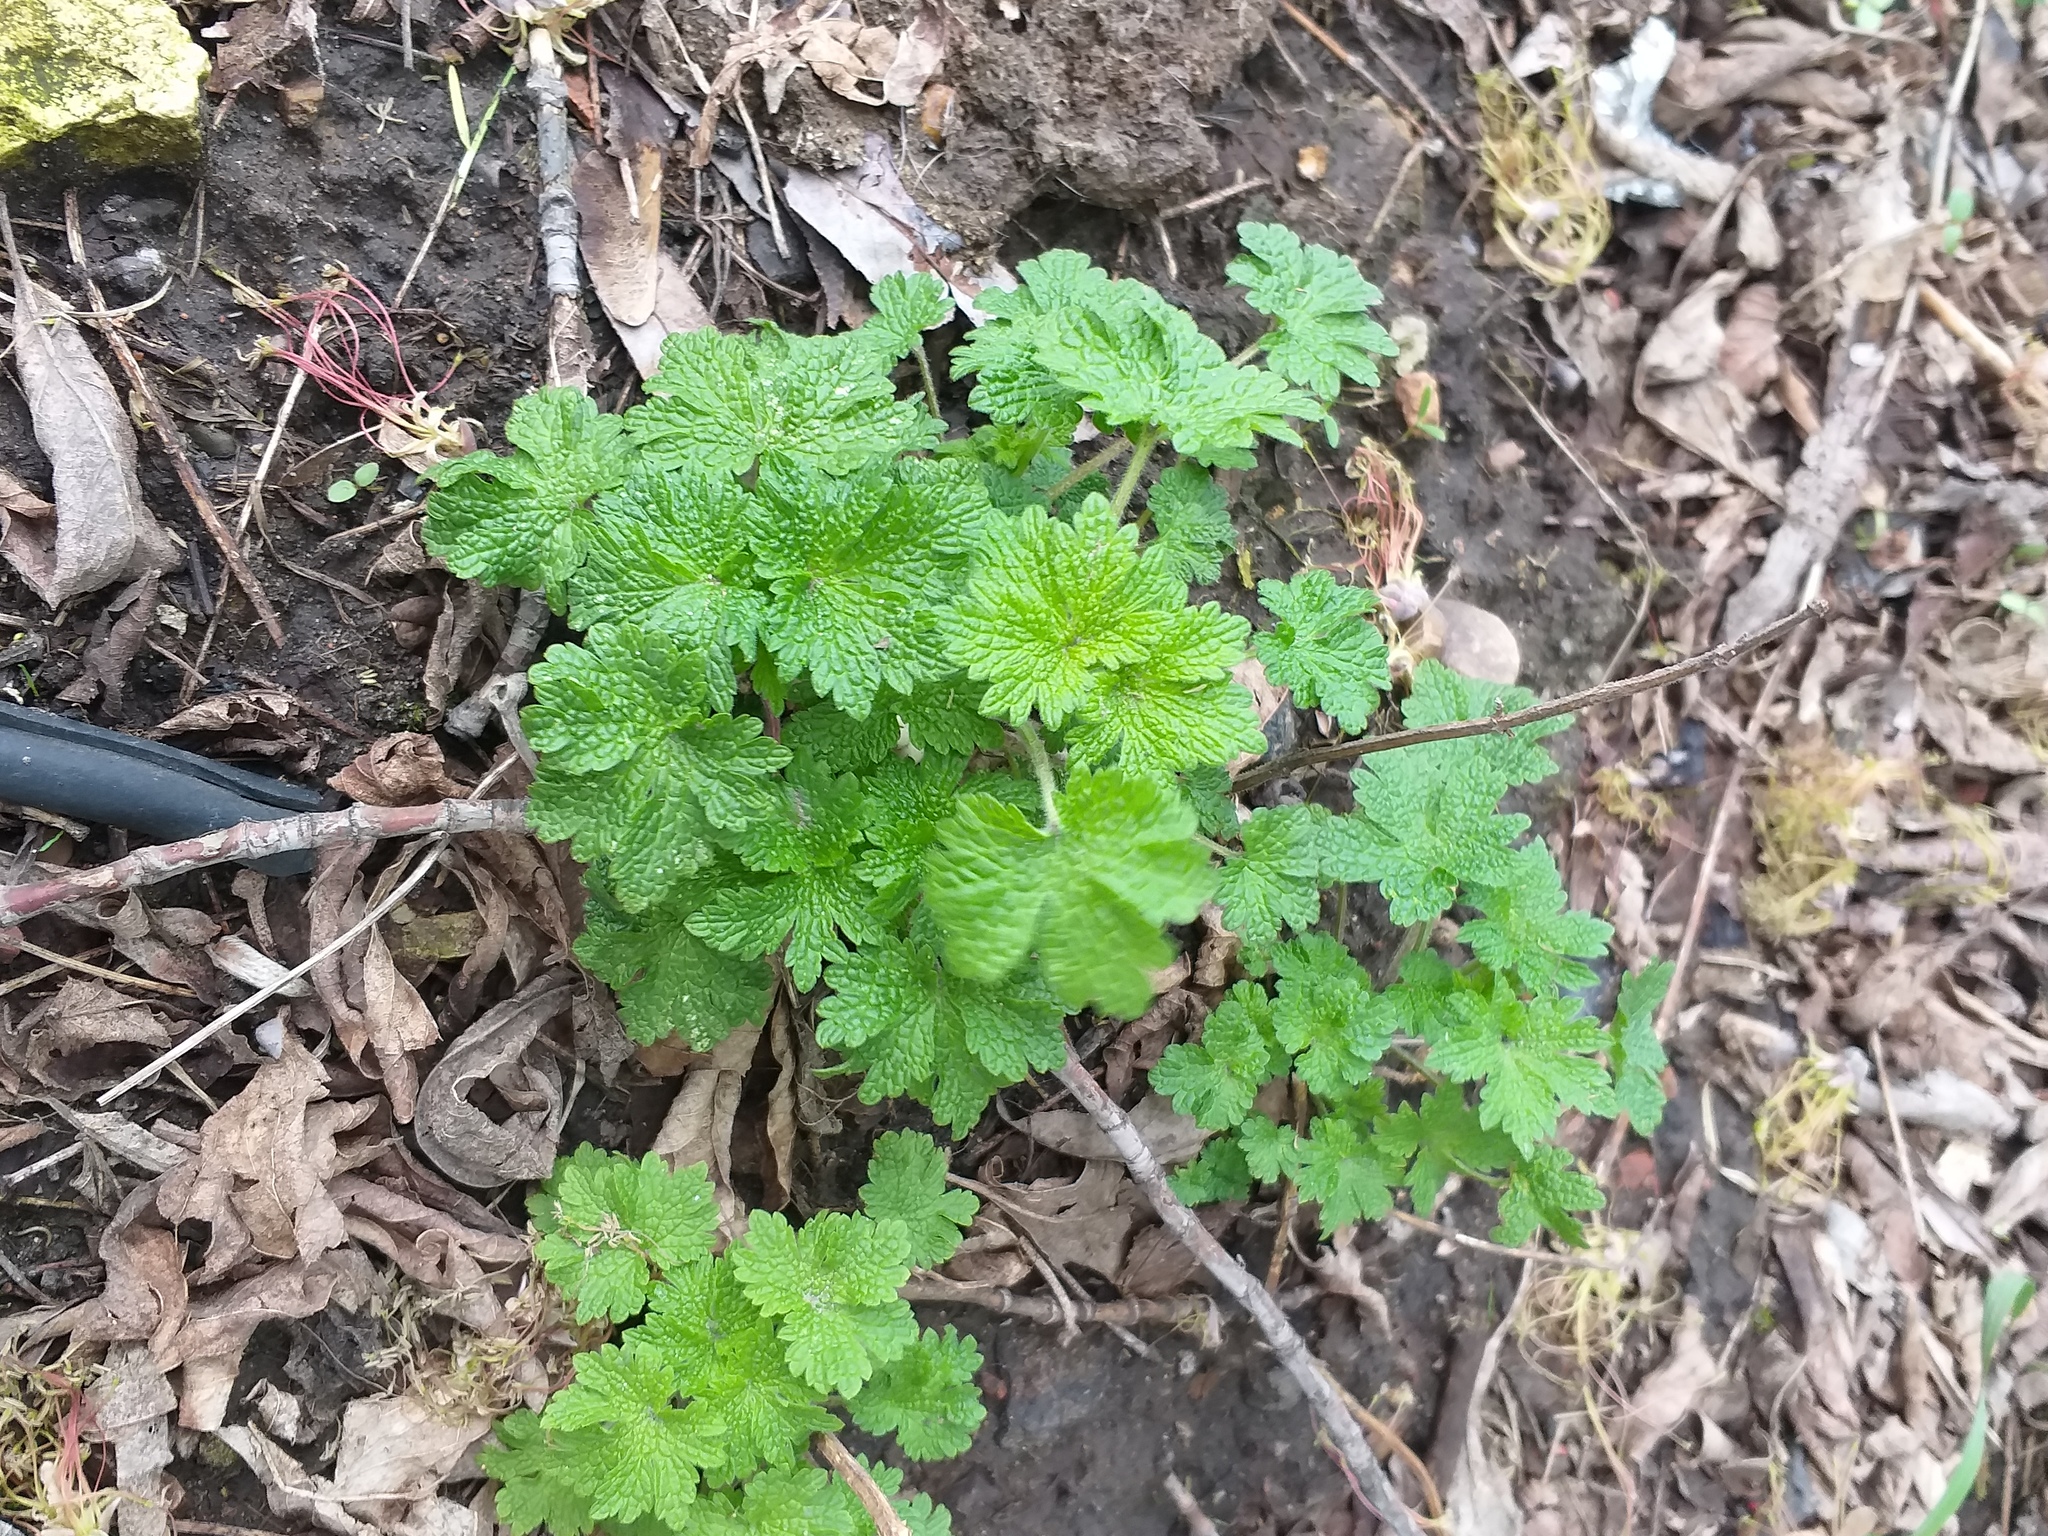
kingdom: Plantae
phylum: Tracheophyta
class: Magnoliopsida
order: Lamiales
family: Lamiaceae
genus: Leonurus
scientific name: Leonurus quinquelobatus
